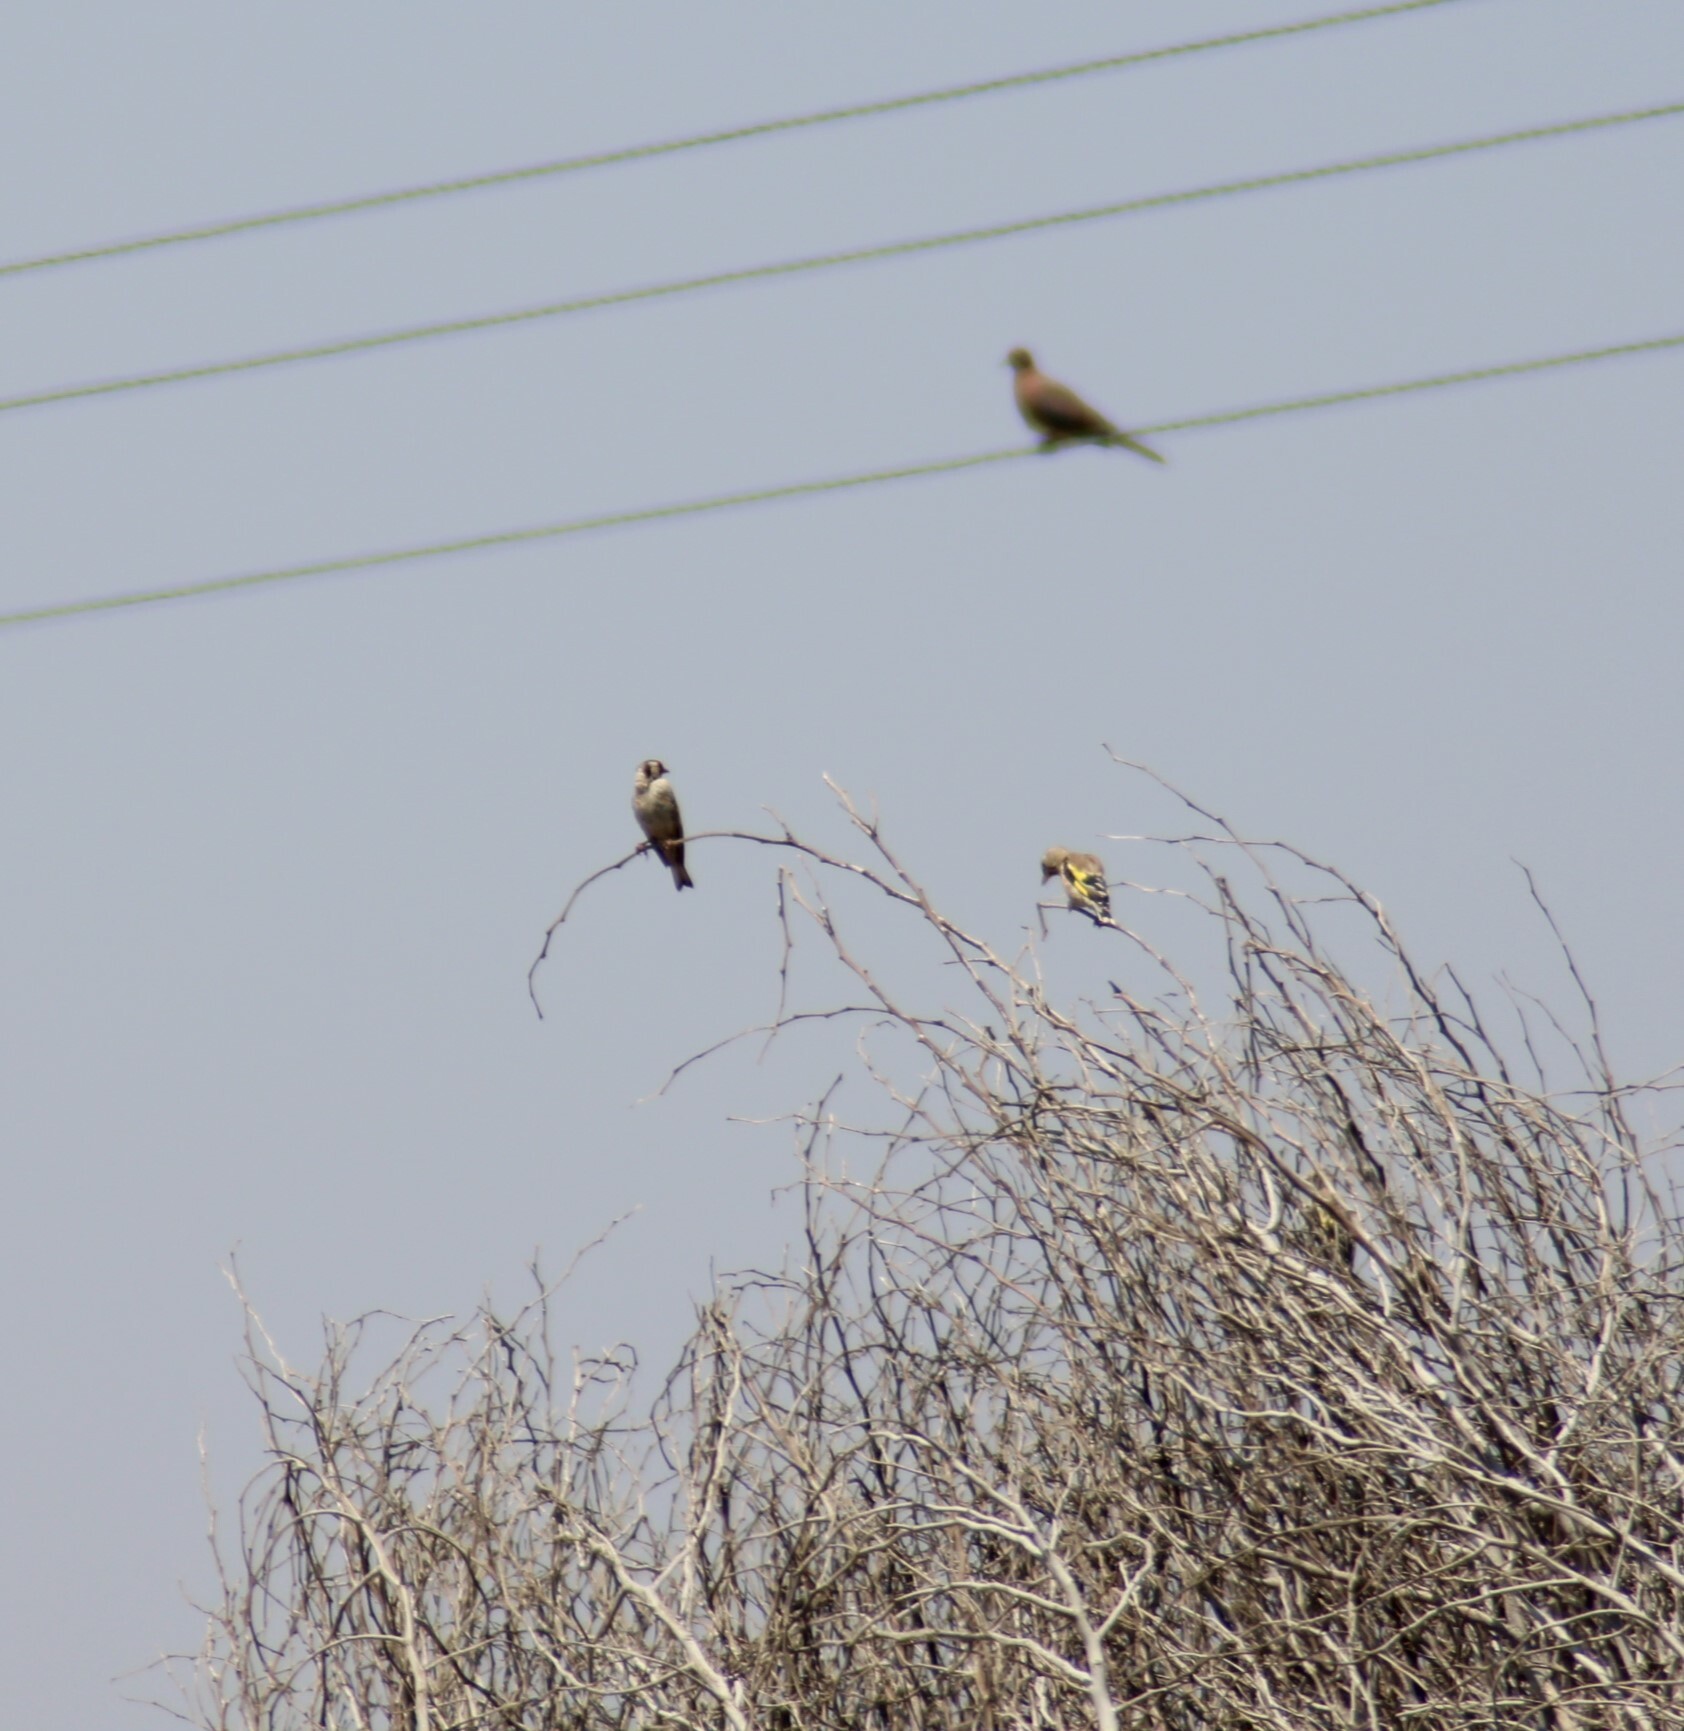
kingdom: Animalia
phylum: Chordata
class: Aves
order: Passeriformes
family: Fringillidae
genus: Carduelis
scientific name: Carduelis carduelis
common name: European goldfinch
